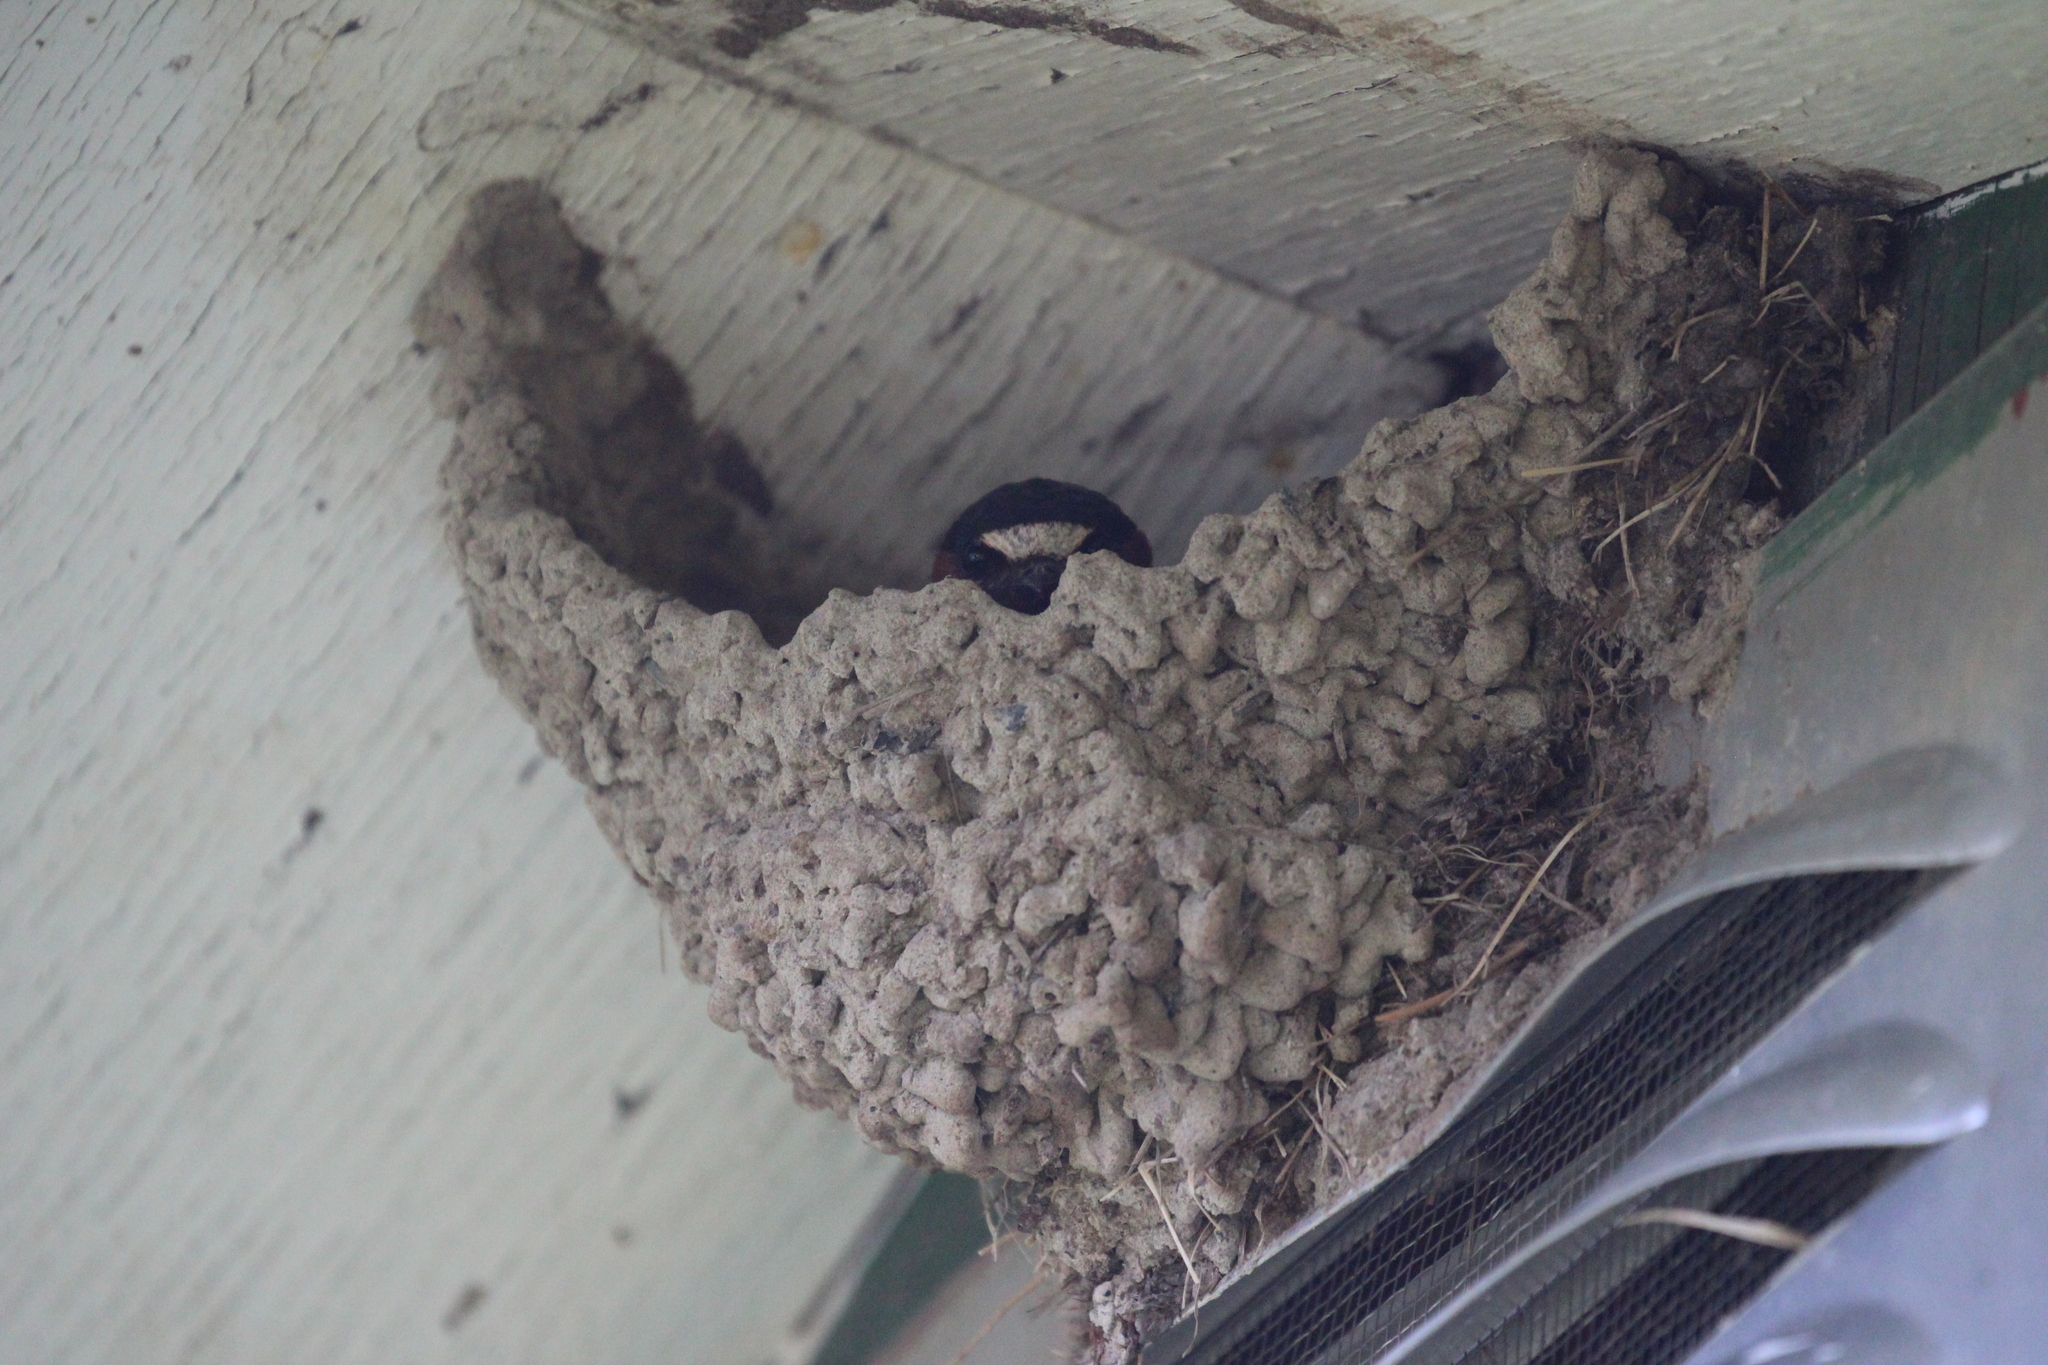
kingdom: Animalia
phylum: Chordata
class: Aves
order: Passeriformes
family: Hirundinidae
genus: Petrochelidon
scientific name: Petrochelidon pyrrhonota
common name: American cliff swallow
